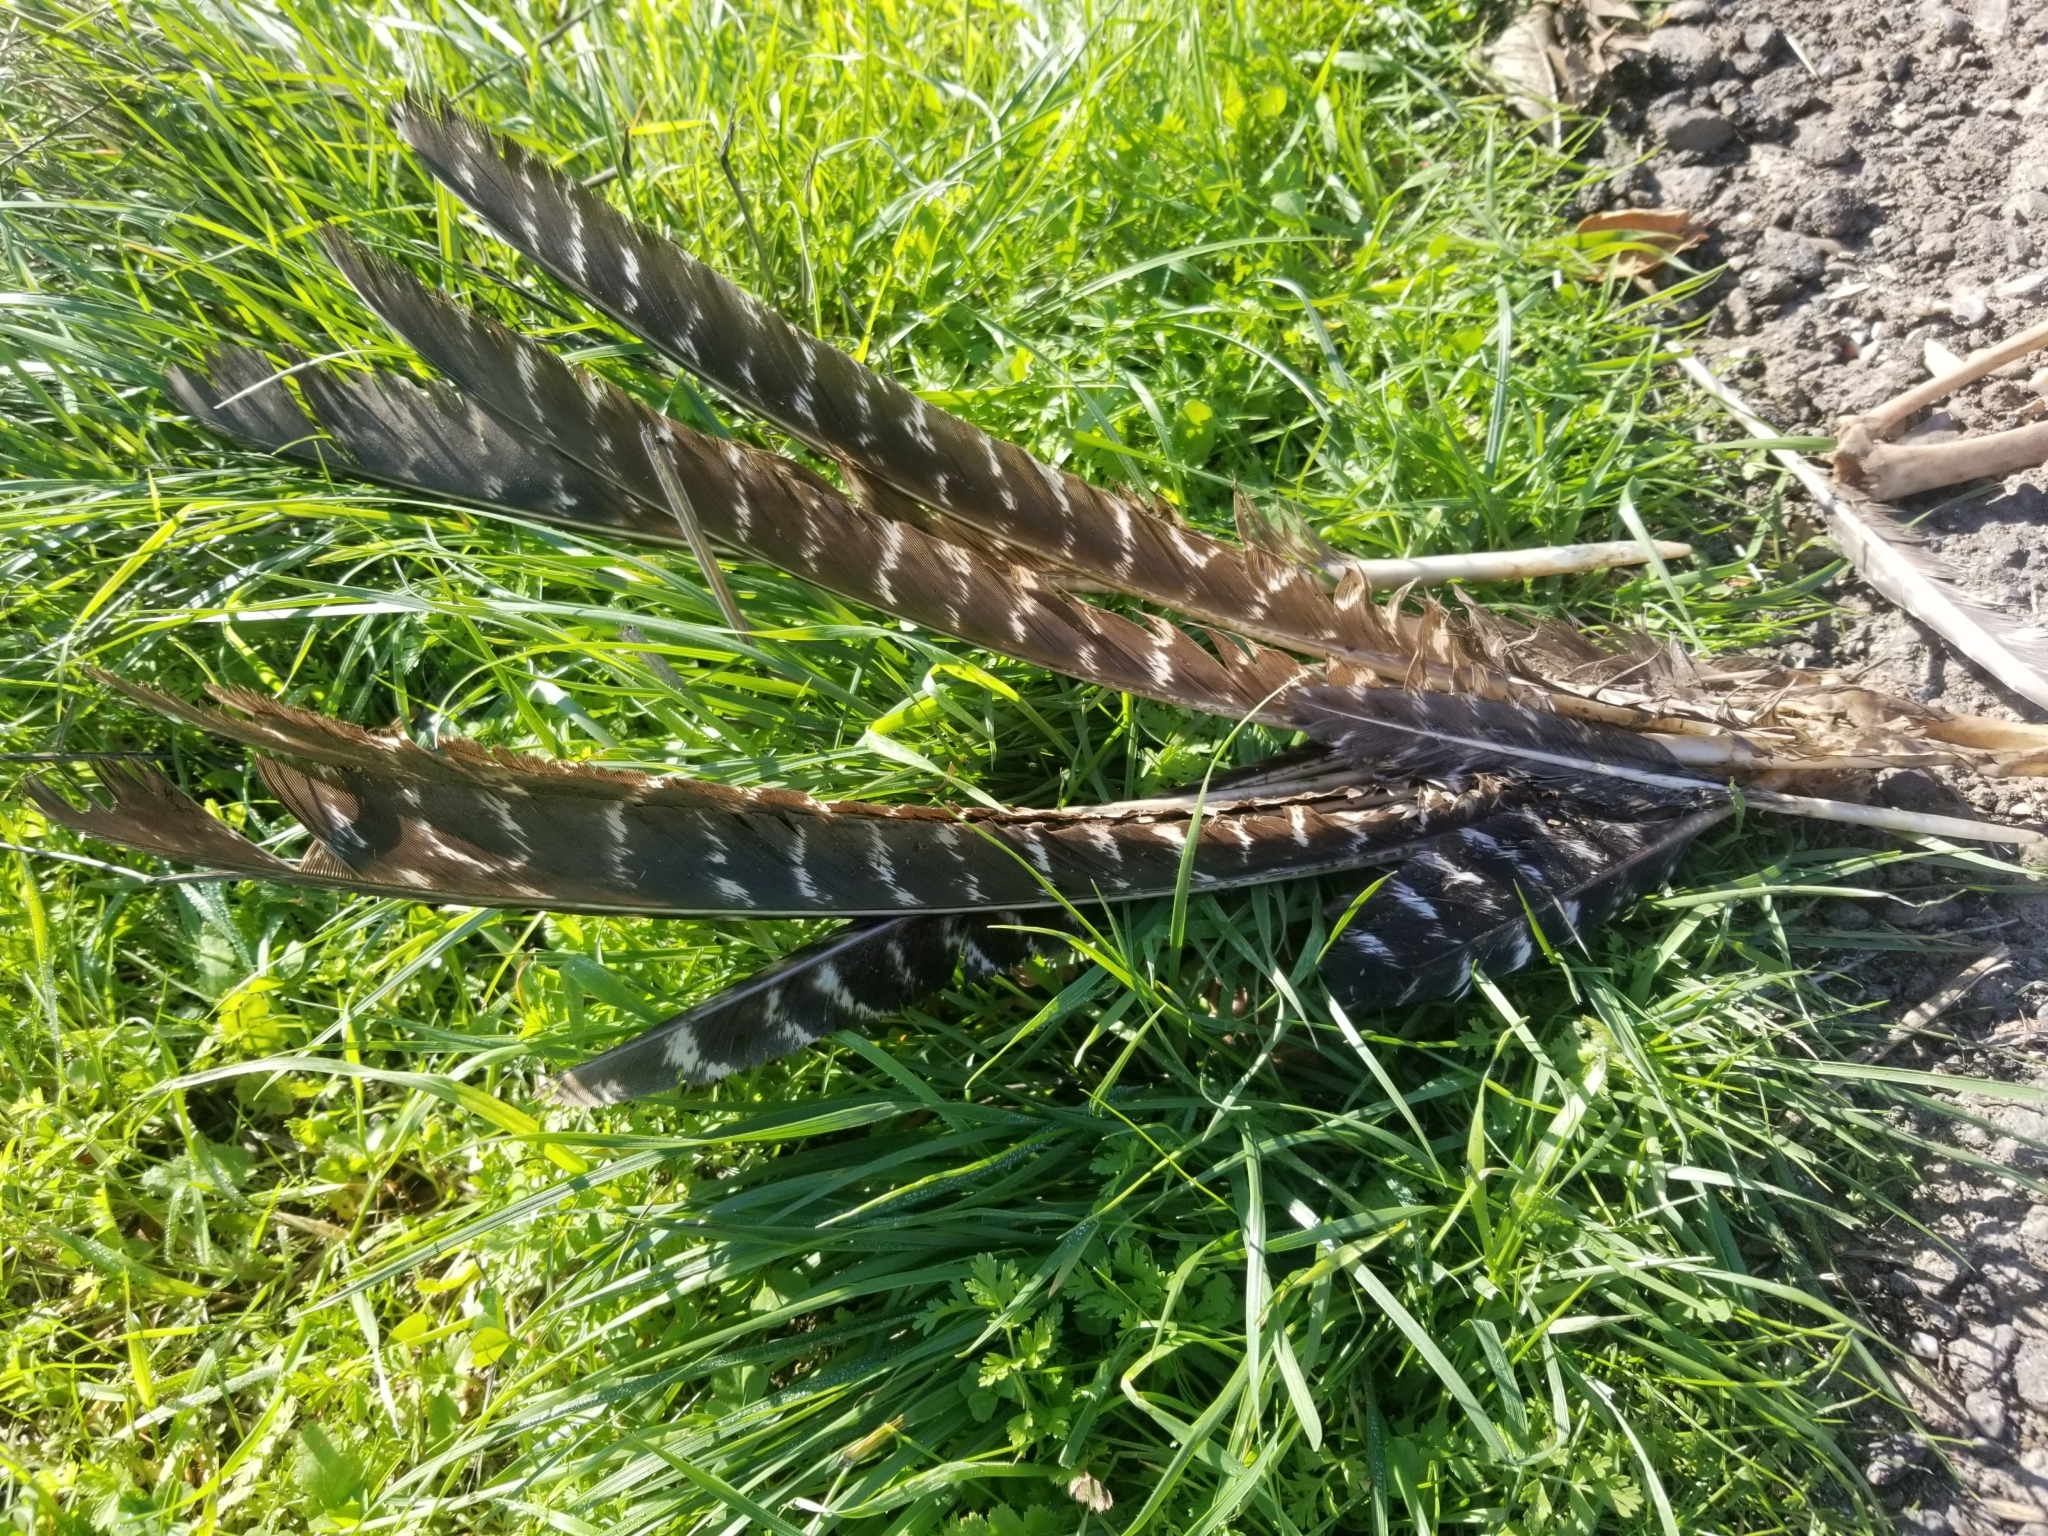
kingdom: Animalia
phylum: Chordata
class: Aves
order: Galliformes
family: Phasianidae
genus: Meleagris
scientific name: Meleagris gallopavo
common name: Wild turkey
